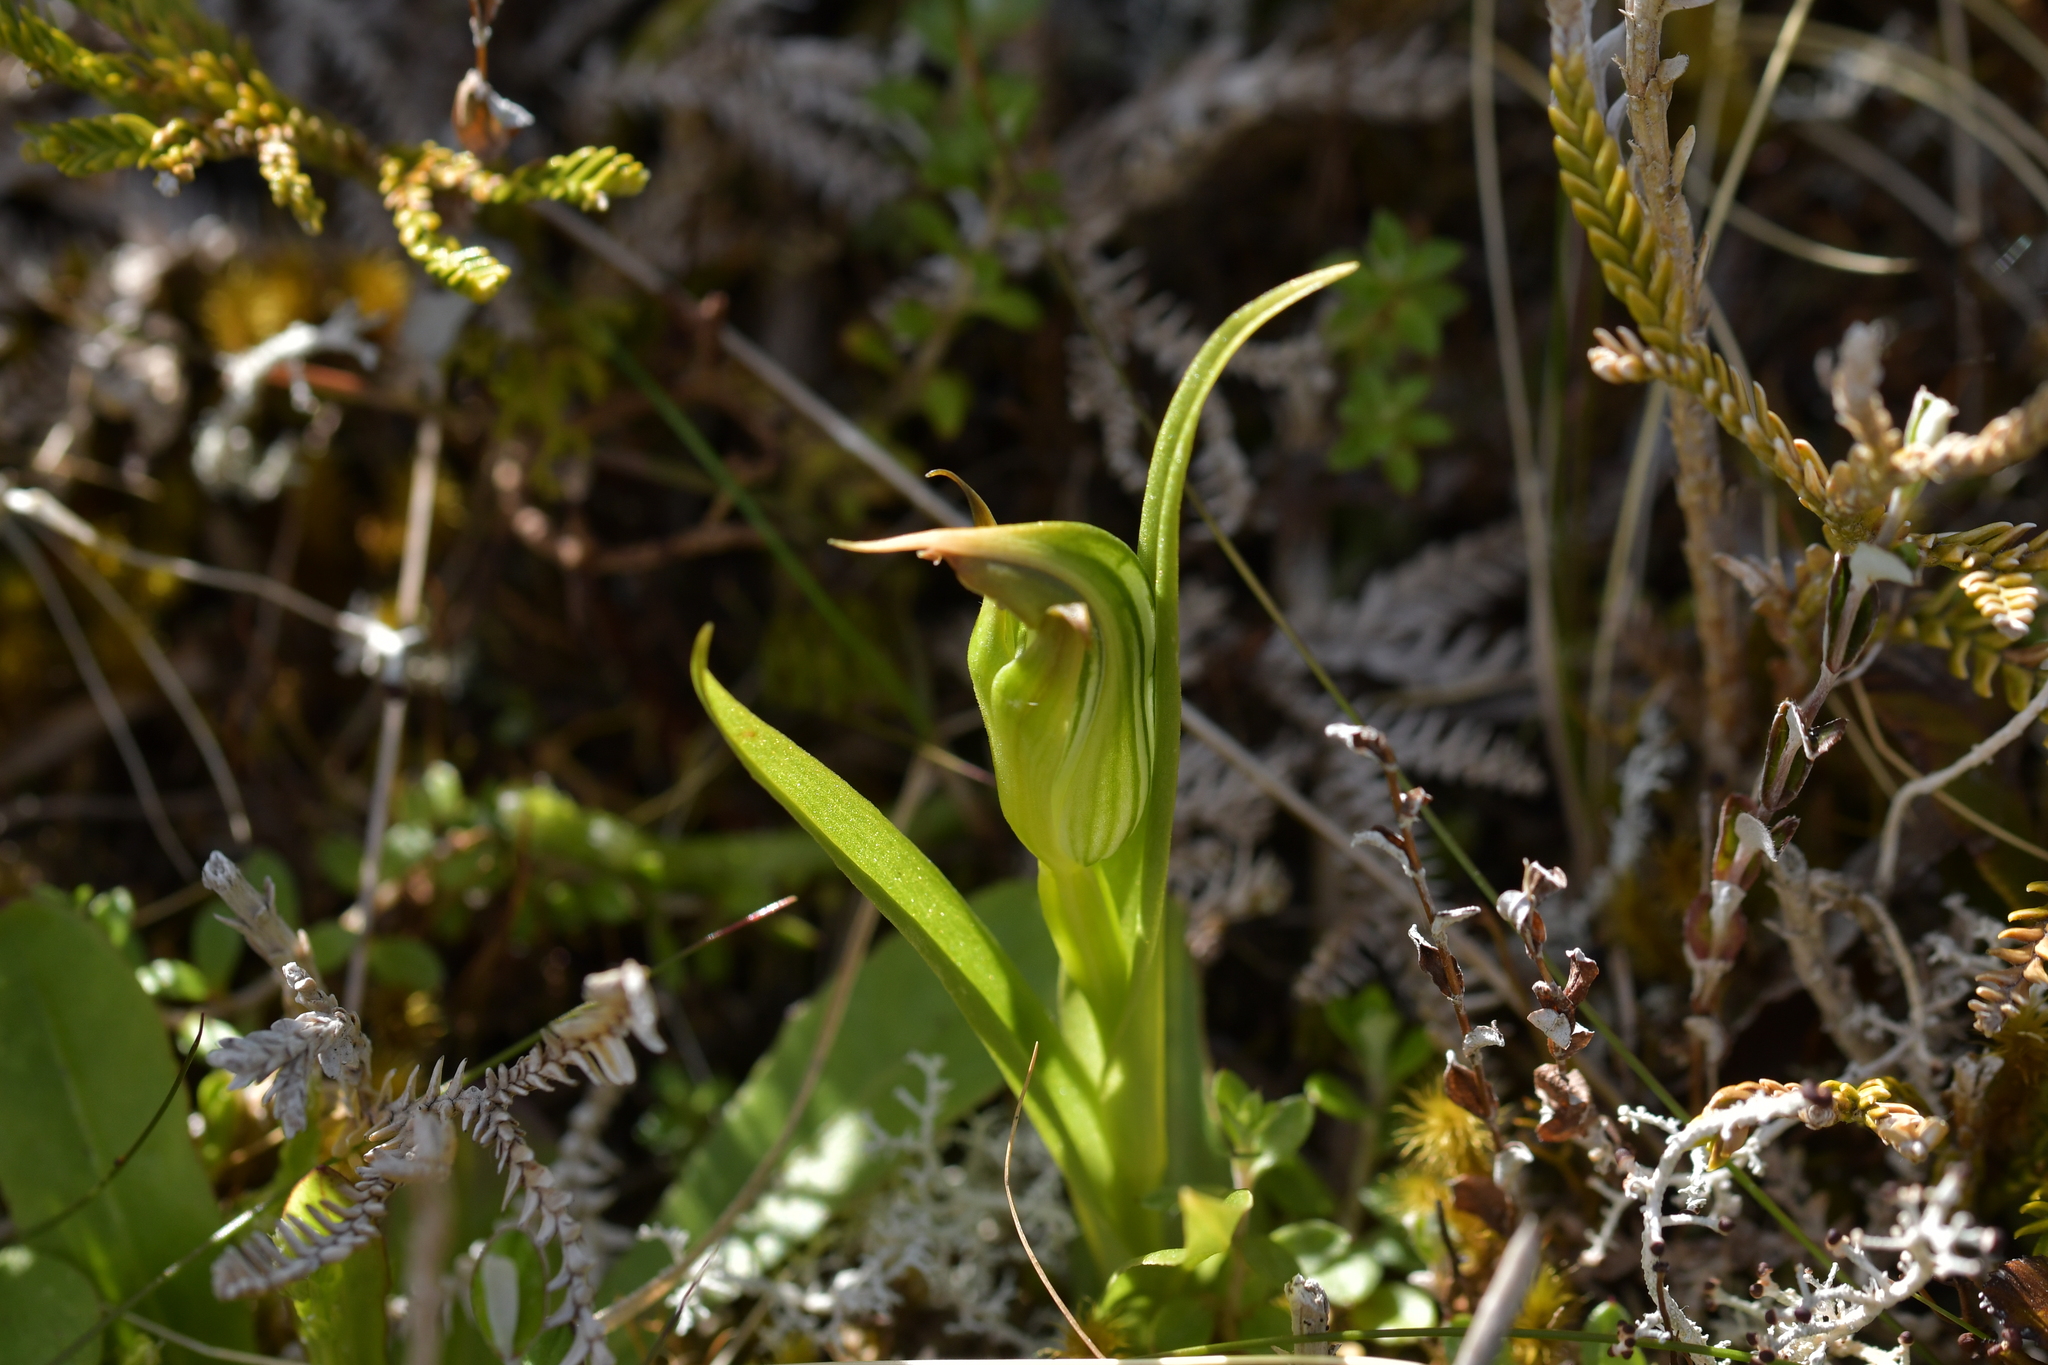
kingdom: Plantae
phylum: Tracheophyta
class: Liliopsida
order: Asparagales
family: Orchidaceae
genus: Pterostylis
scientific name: Pterostylis montana
